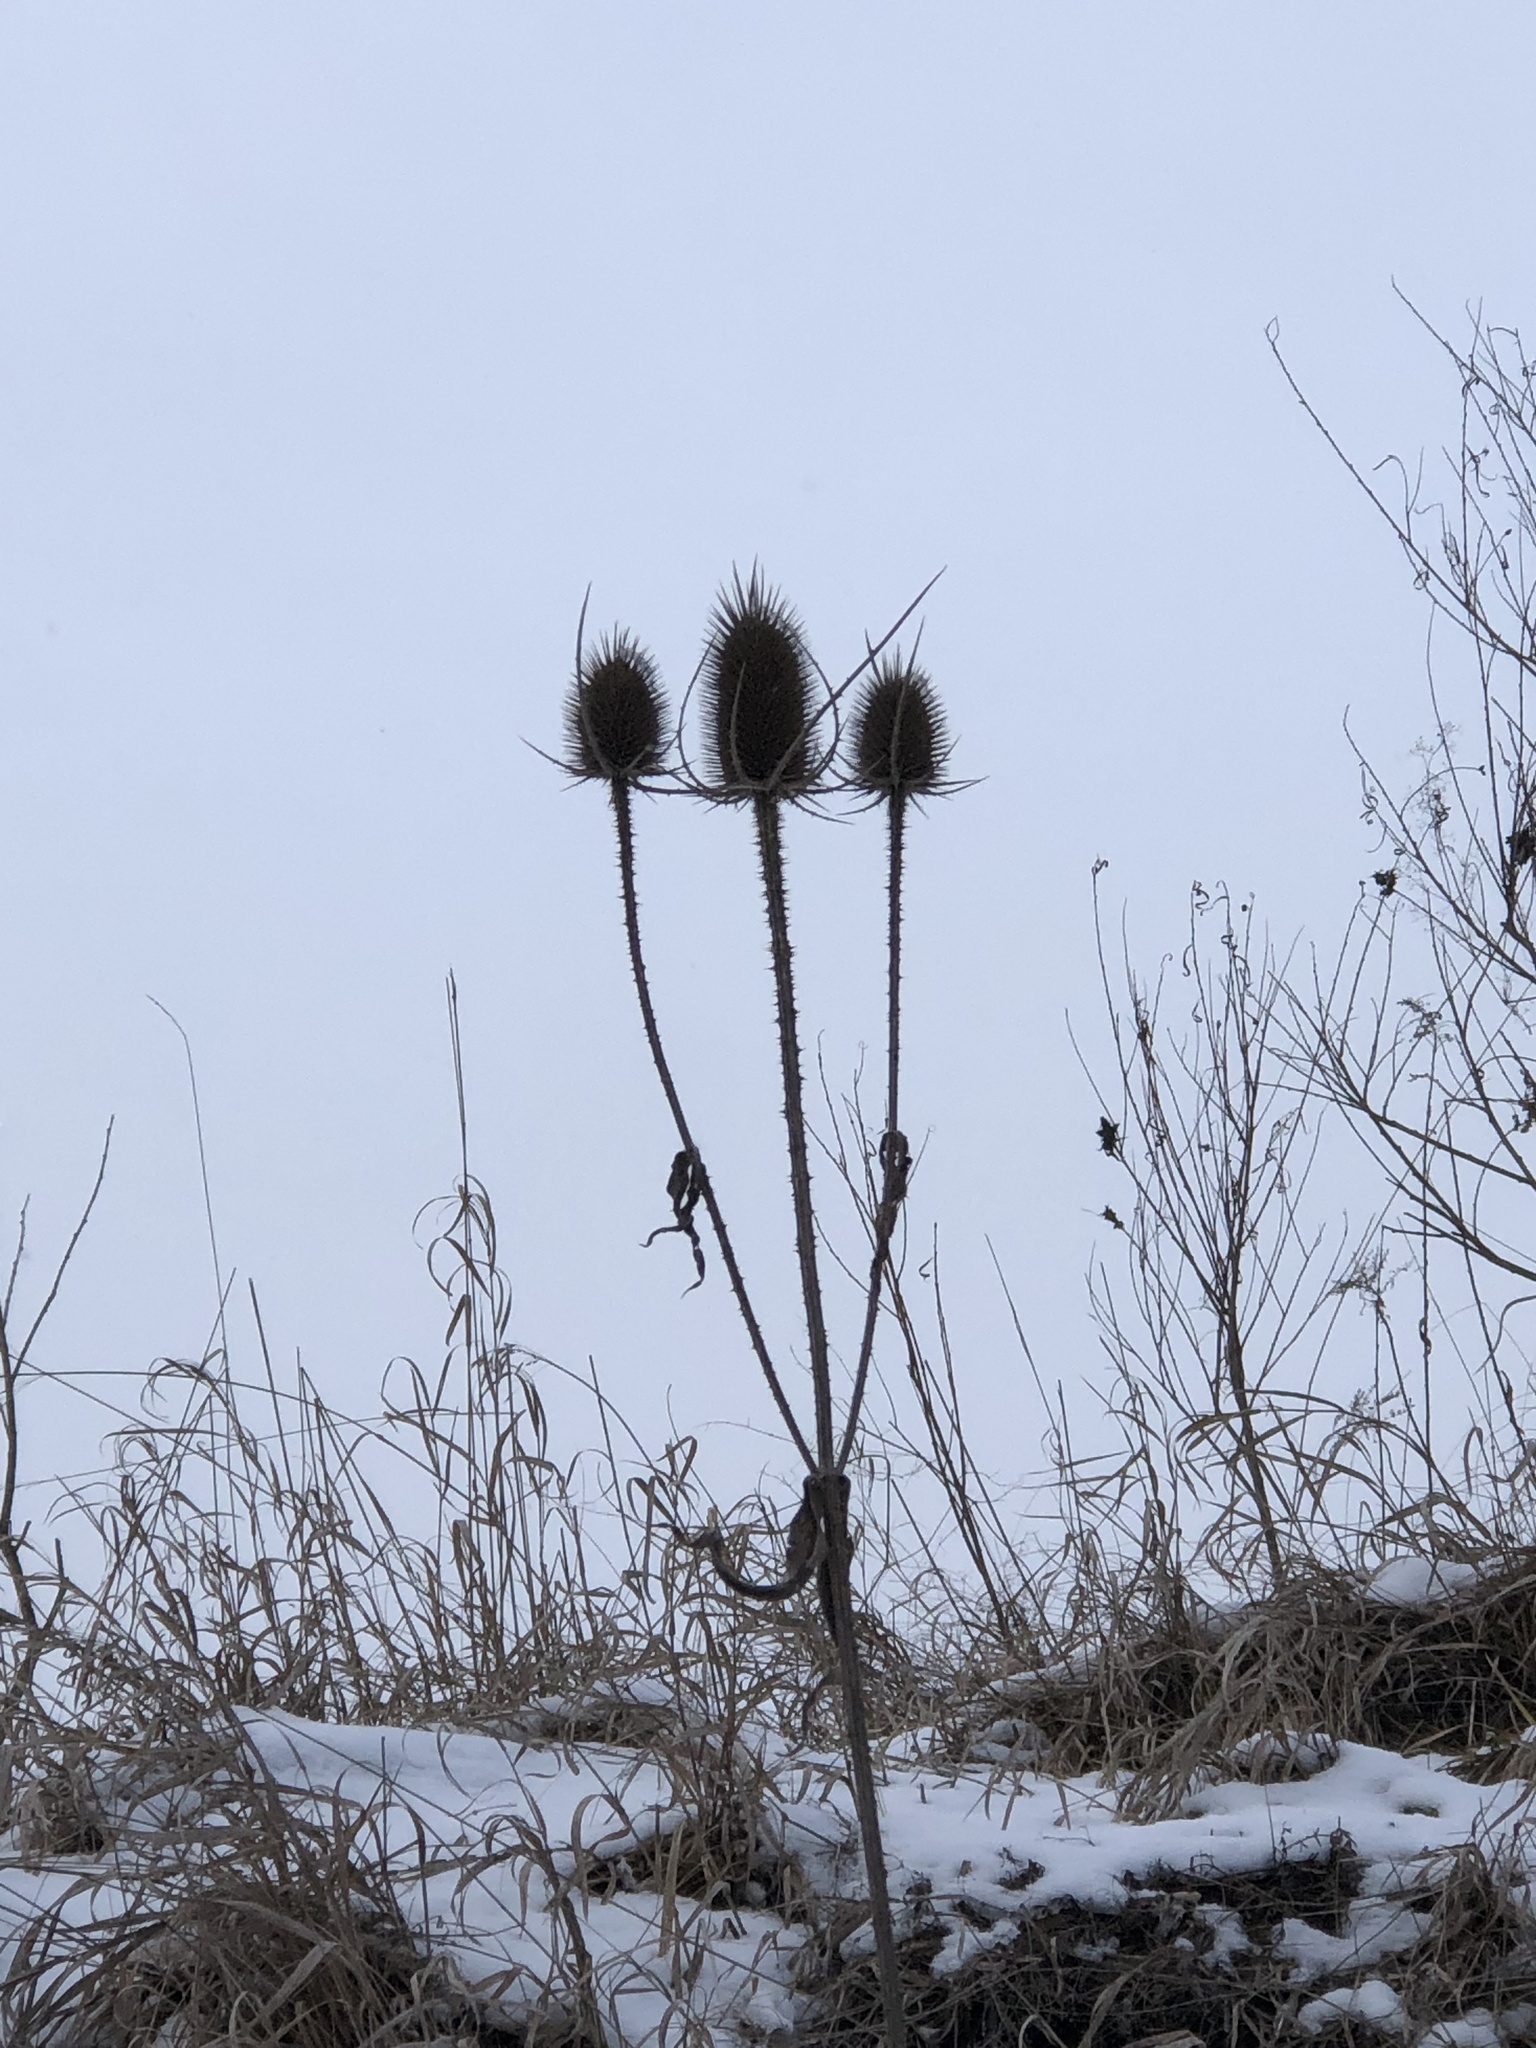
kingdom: Plantae
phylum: Tracheophyta
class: Magnoliopsida
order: Dipsacales
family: Caprifoliaceae
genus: Dipsacus
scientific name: Dipsacus fullonum
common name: Teasel
